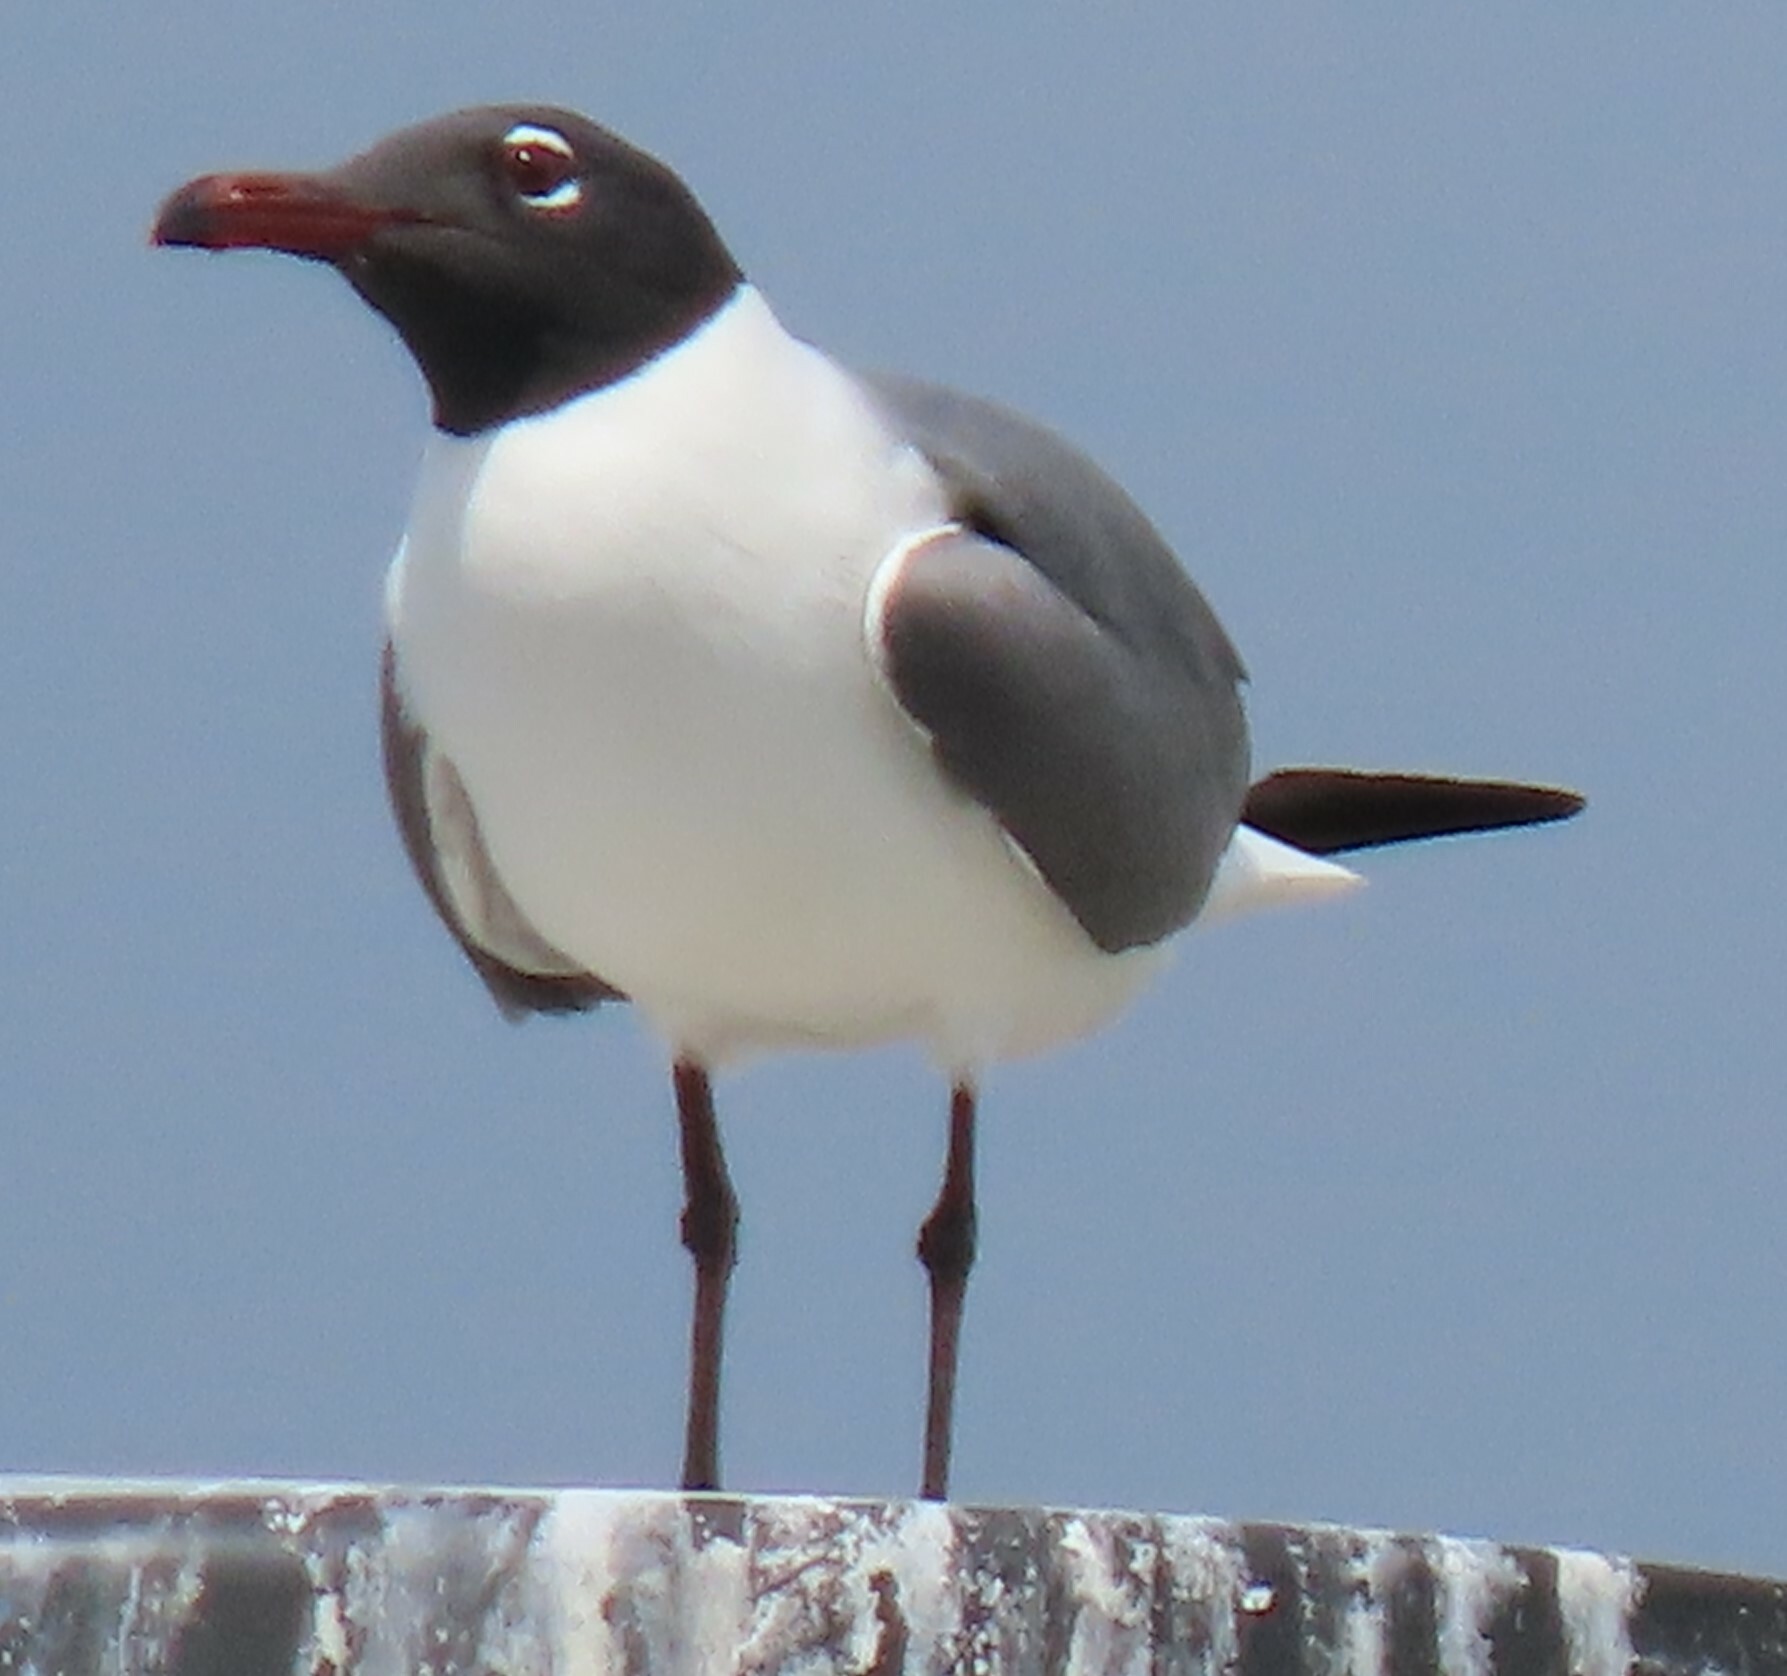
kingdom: Animalia
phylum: Chordata
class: Aves
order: Charadriiformes
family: Laridae
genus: Leucophaeus
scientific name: Leucophaeus atricilla
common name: Laughing gull
